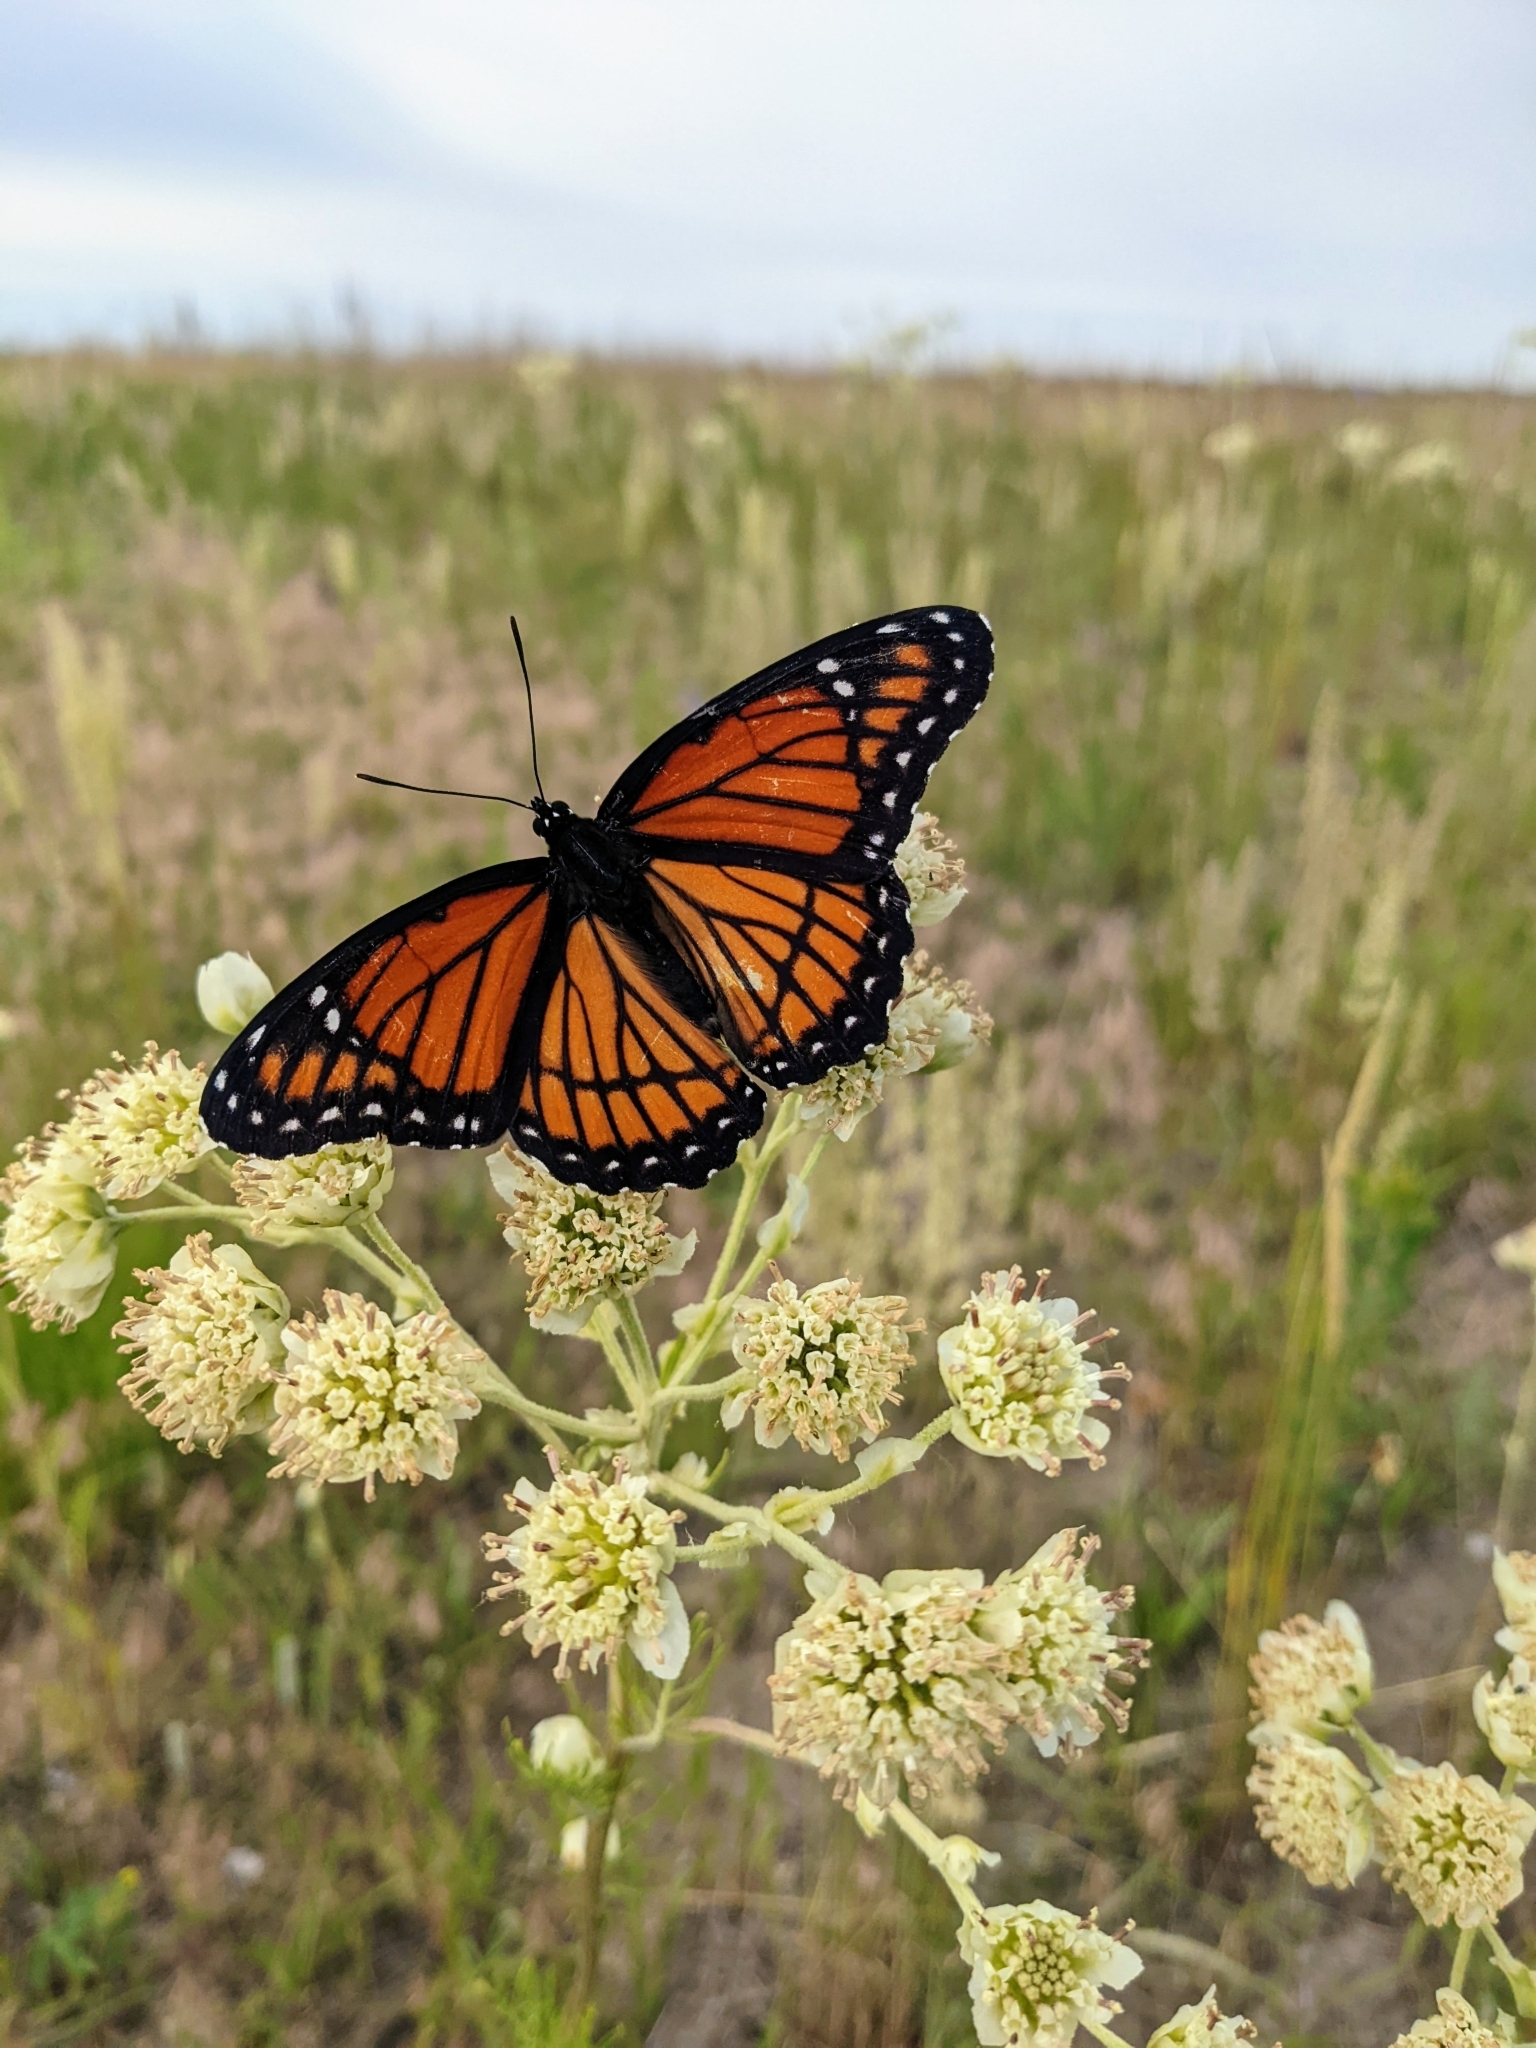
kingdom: Plantae
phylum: Tracheophyta
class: Magnoliopsida
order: Asterales
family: Asteraceae
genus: Hymenopappus
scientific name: Hymenopappus scabiosaeus
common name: Carolina woollywhite
